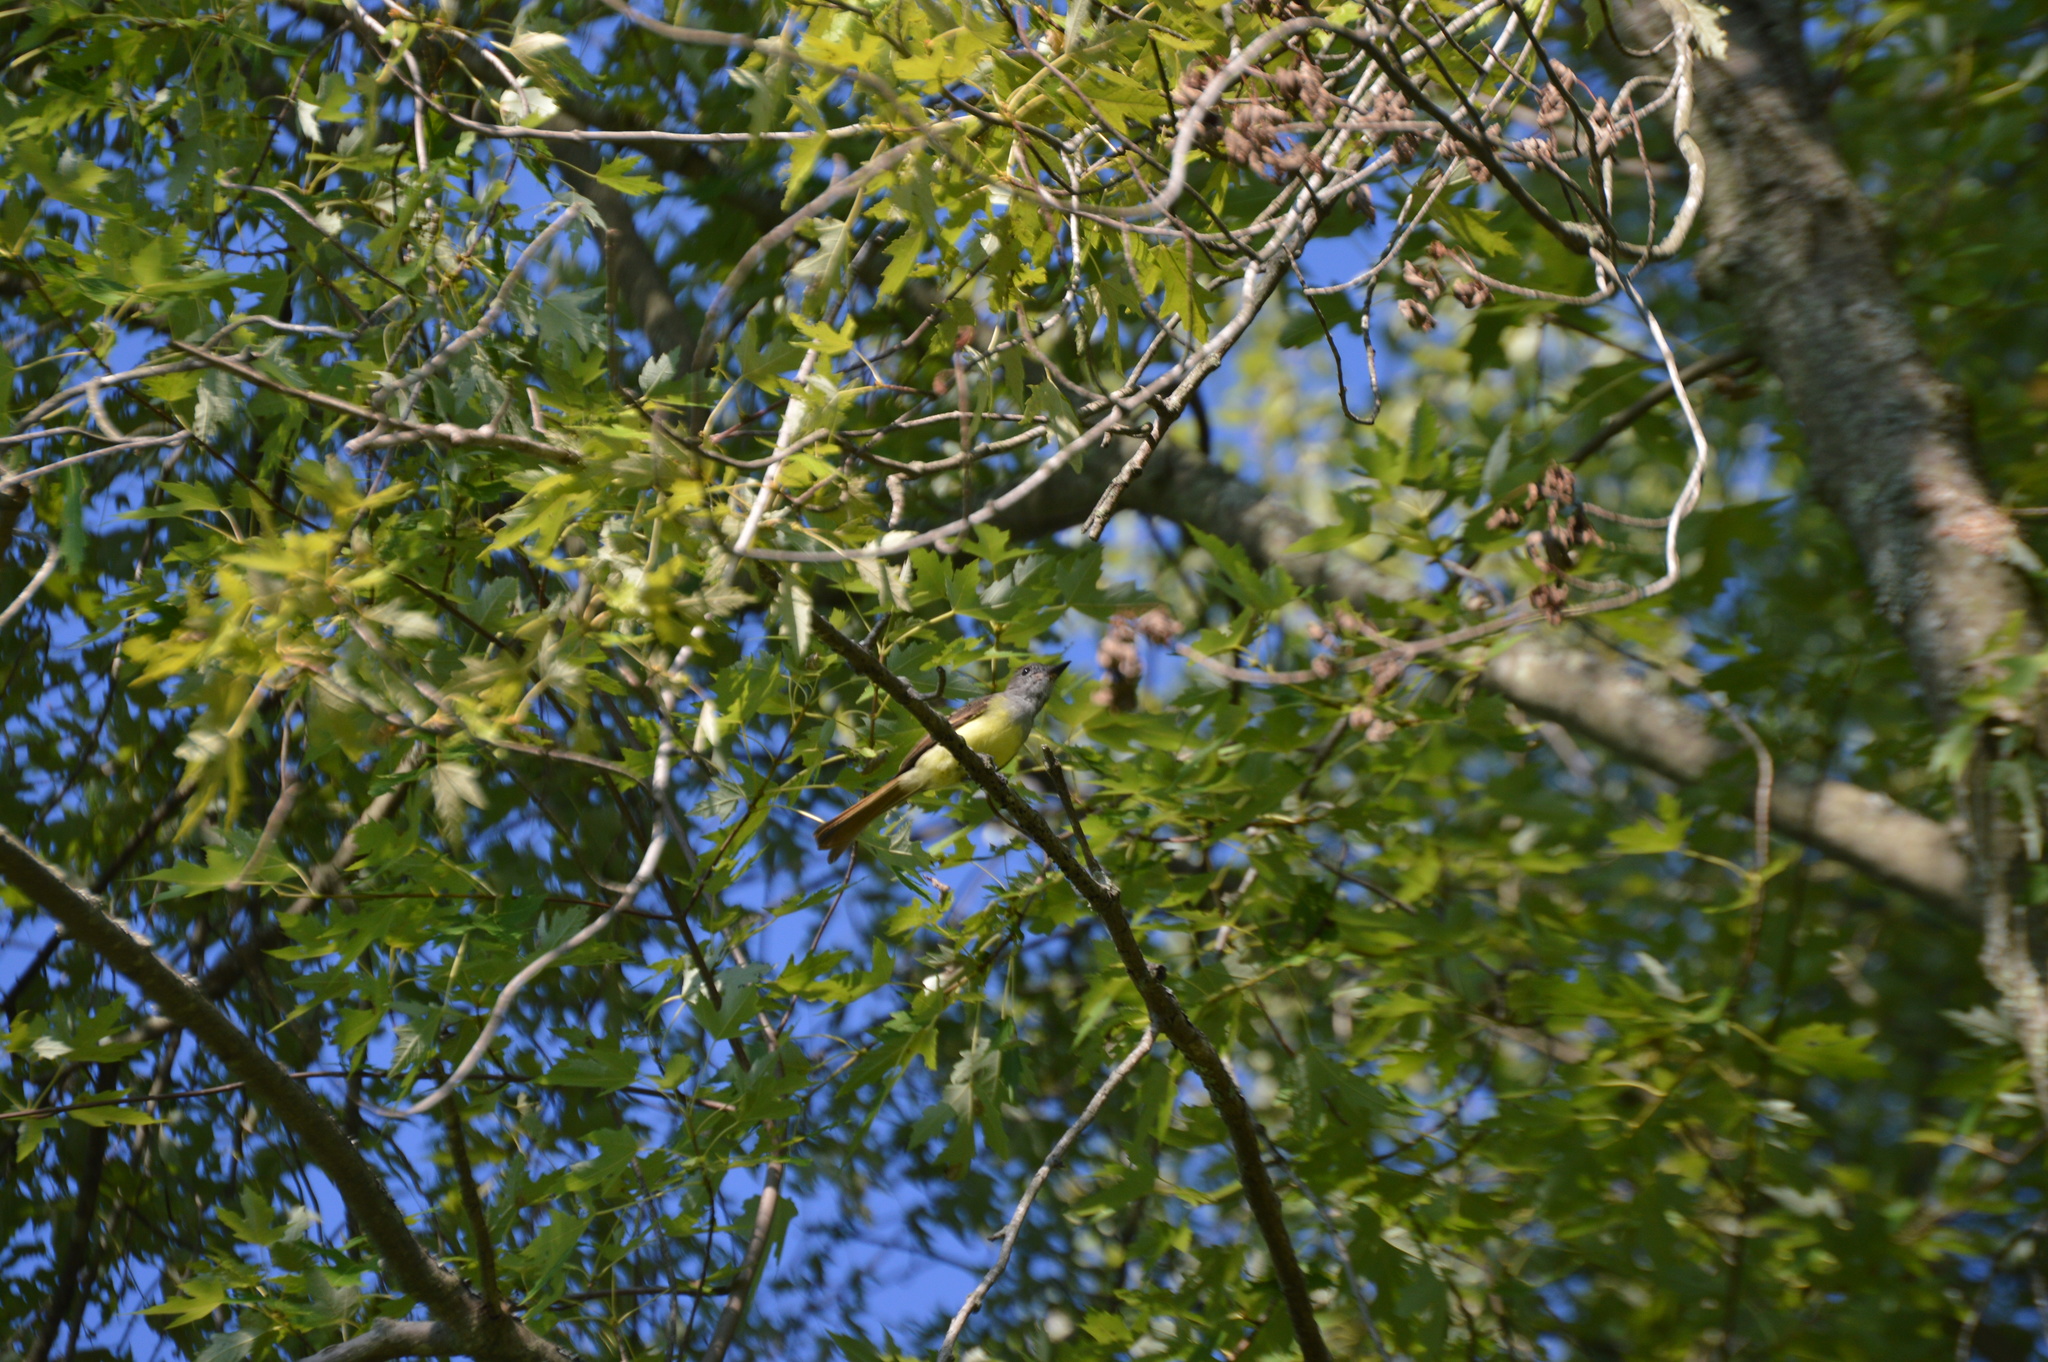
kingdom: Animalia
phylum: Chordata
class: Aves
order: Passeriformes
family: Tyrannidae
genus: Myiarchus
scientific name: Myiarchus crinitus
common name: Great crested flycatcher
